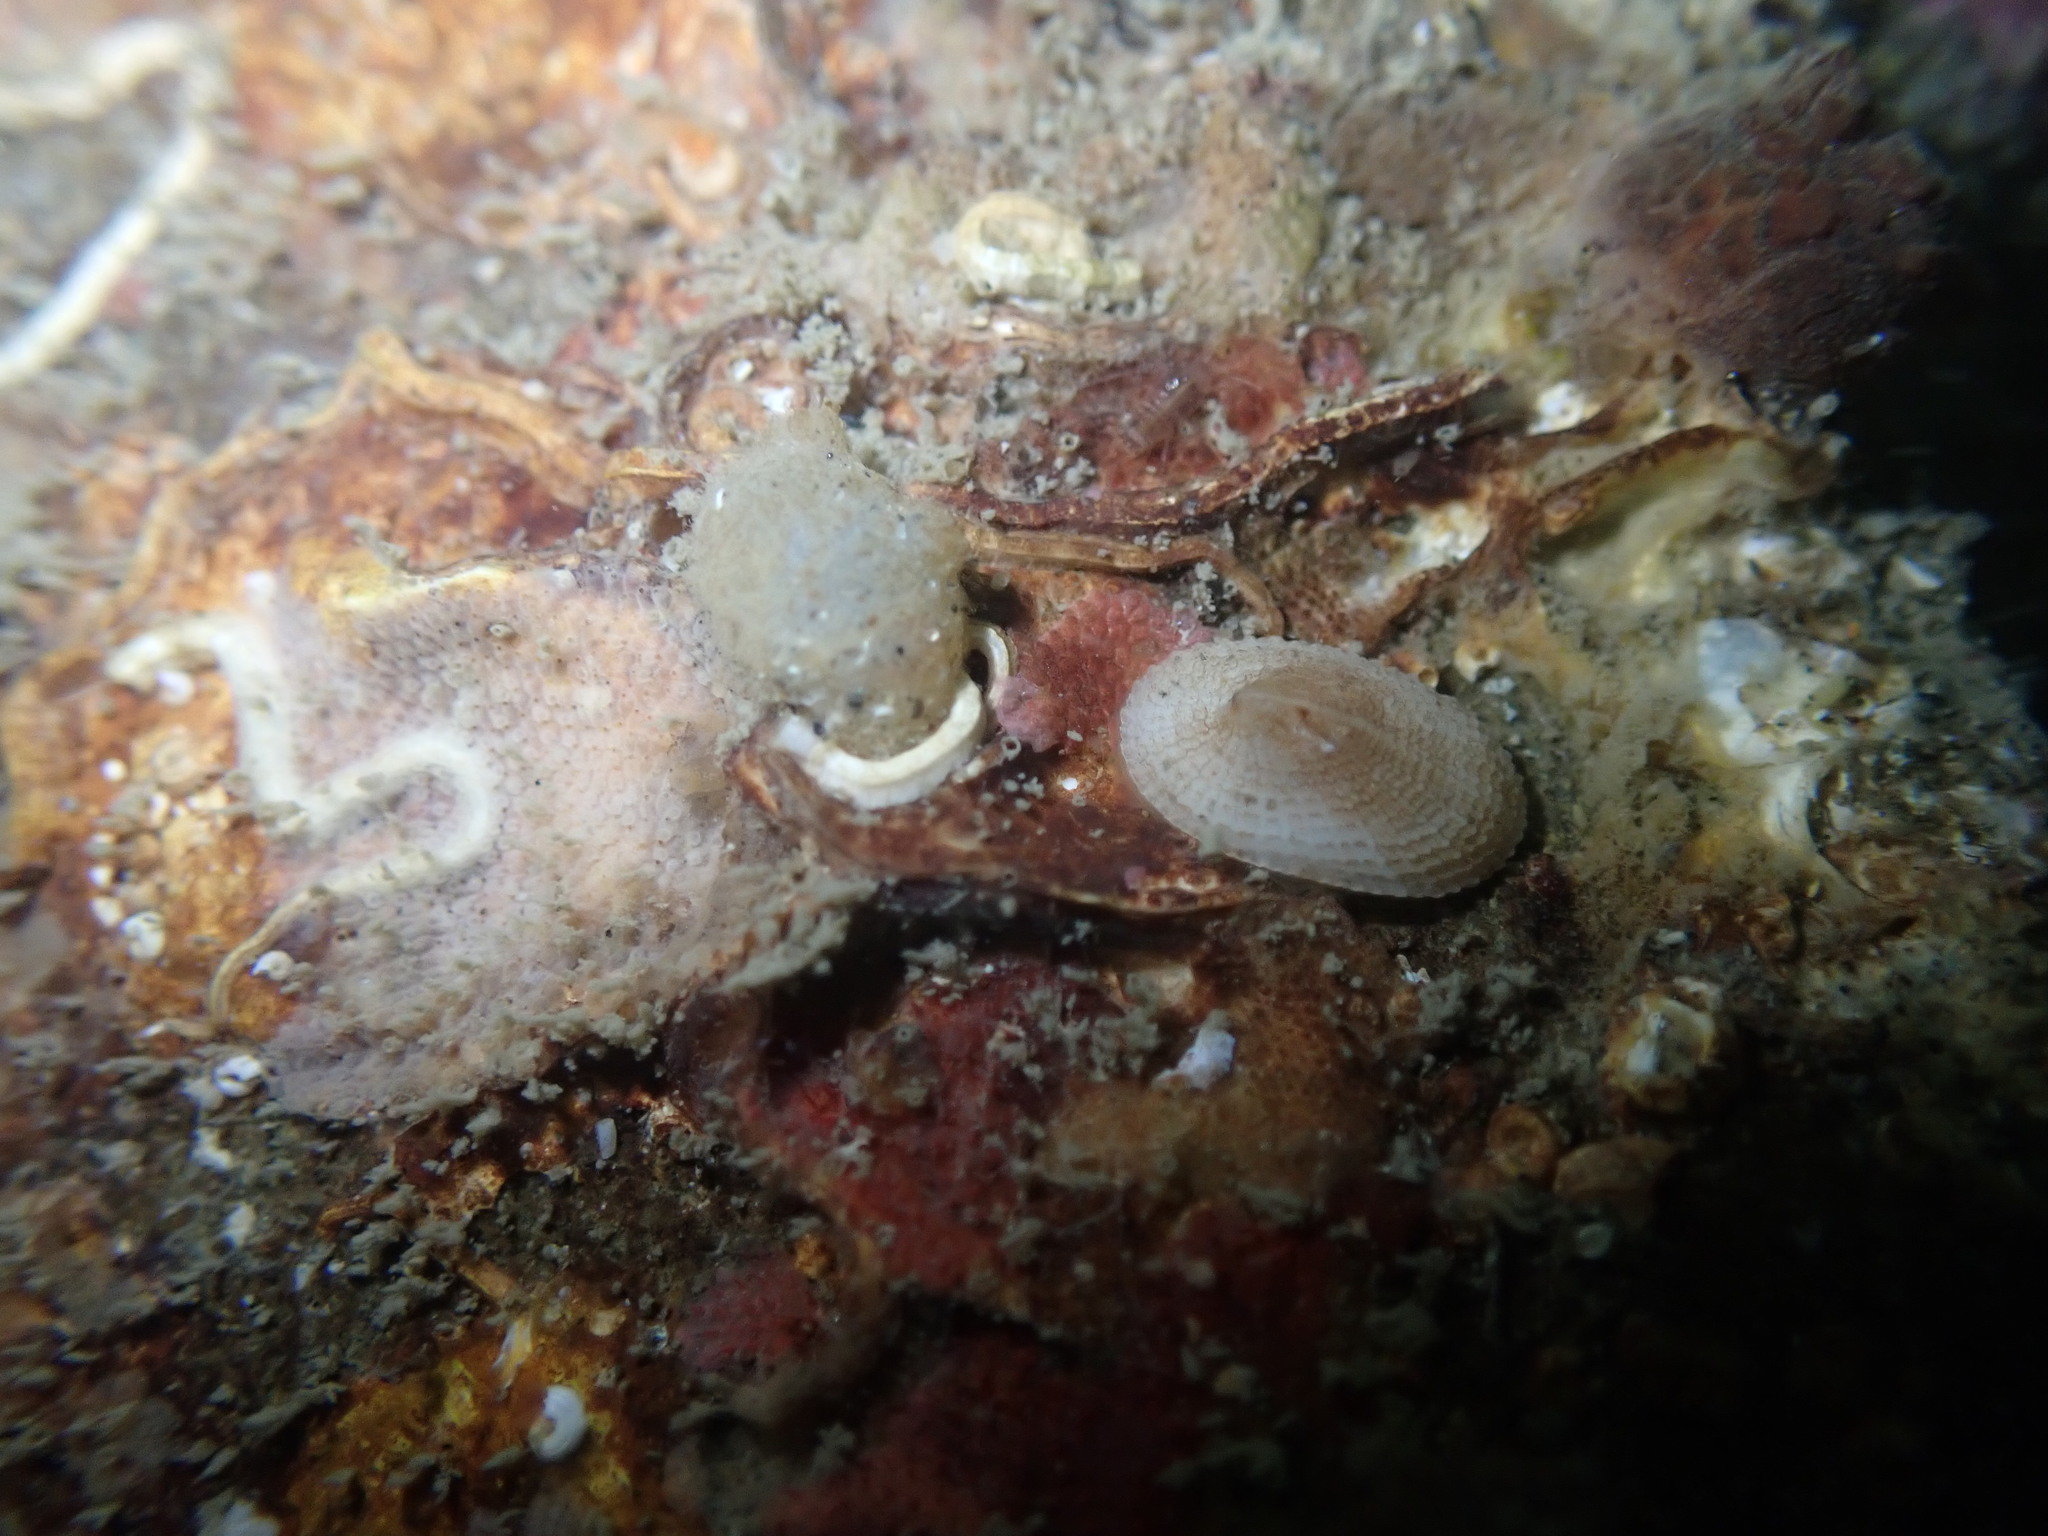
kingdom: Animalia
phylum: Mollusca
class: Gastropoda
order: Lepetellida
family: Fissurellidae
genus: Tugali
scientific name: Tugali suteri
